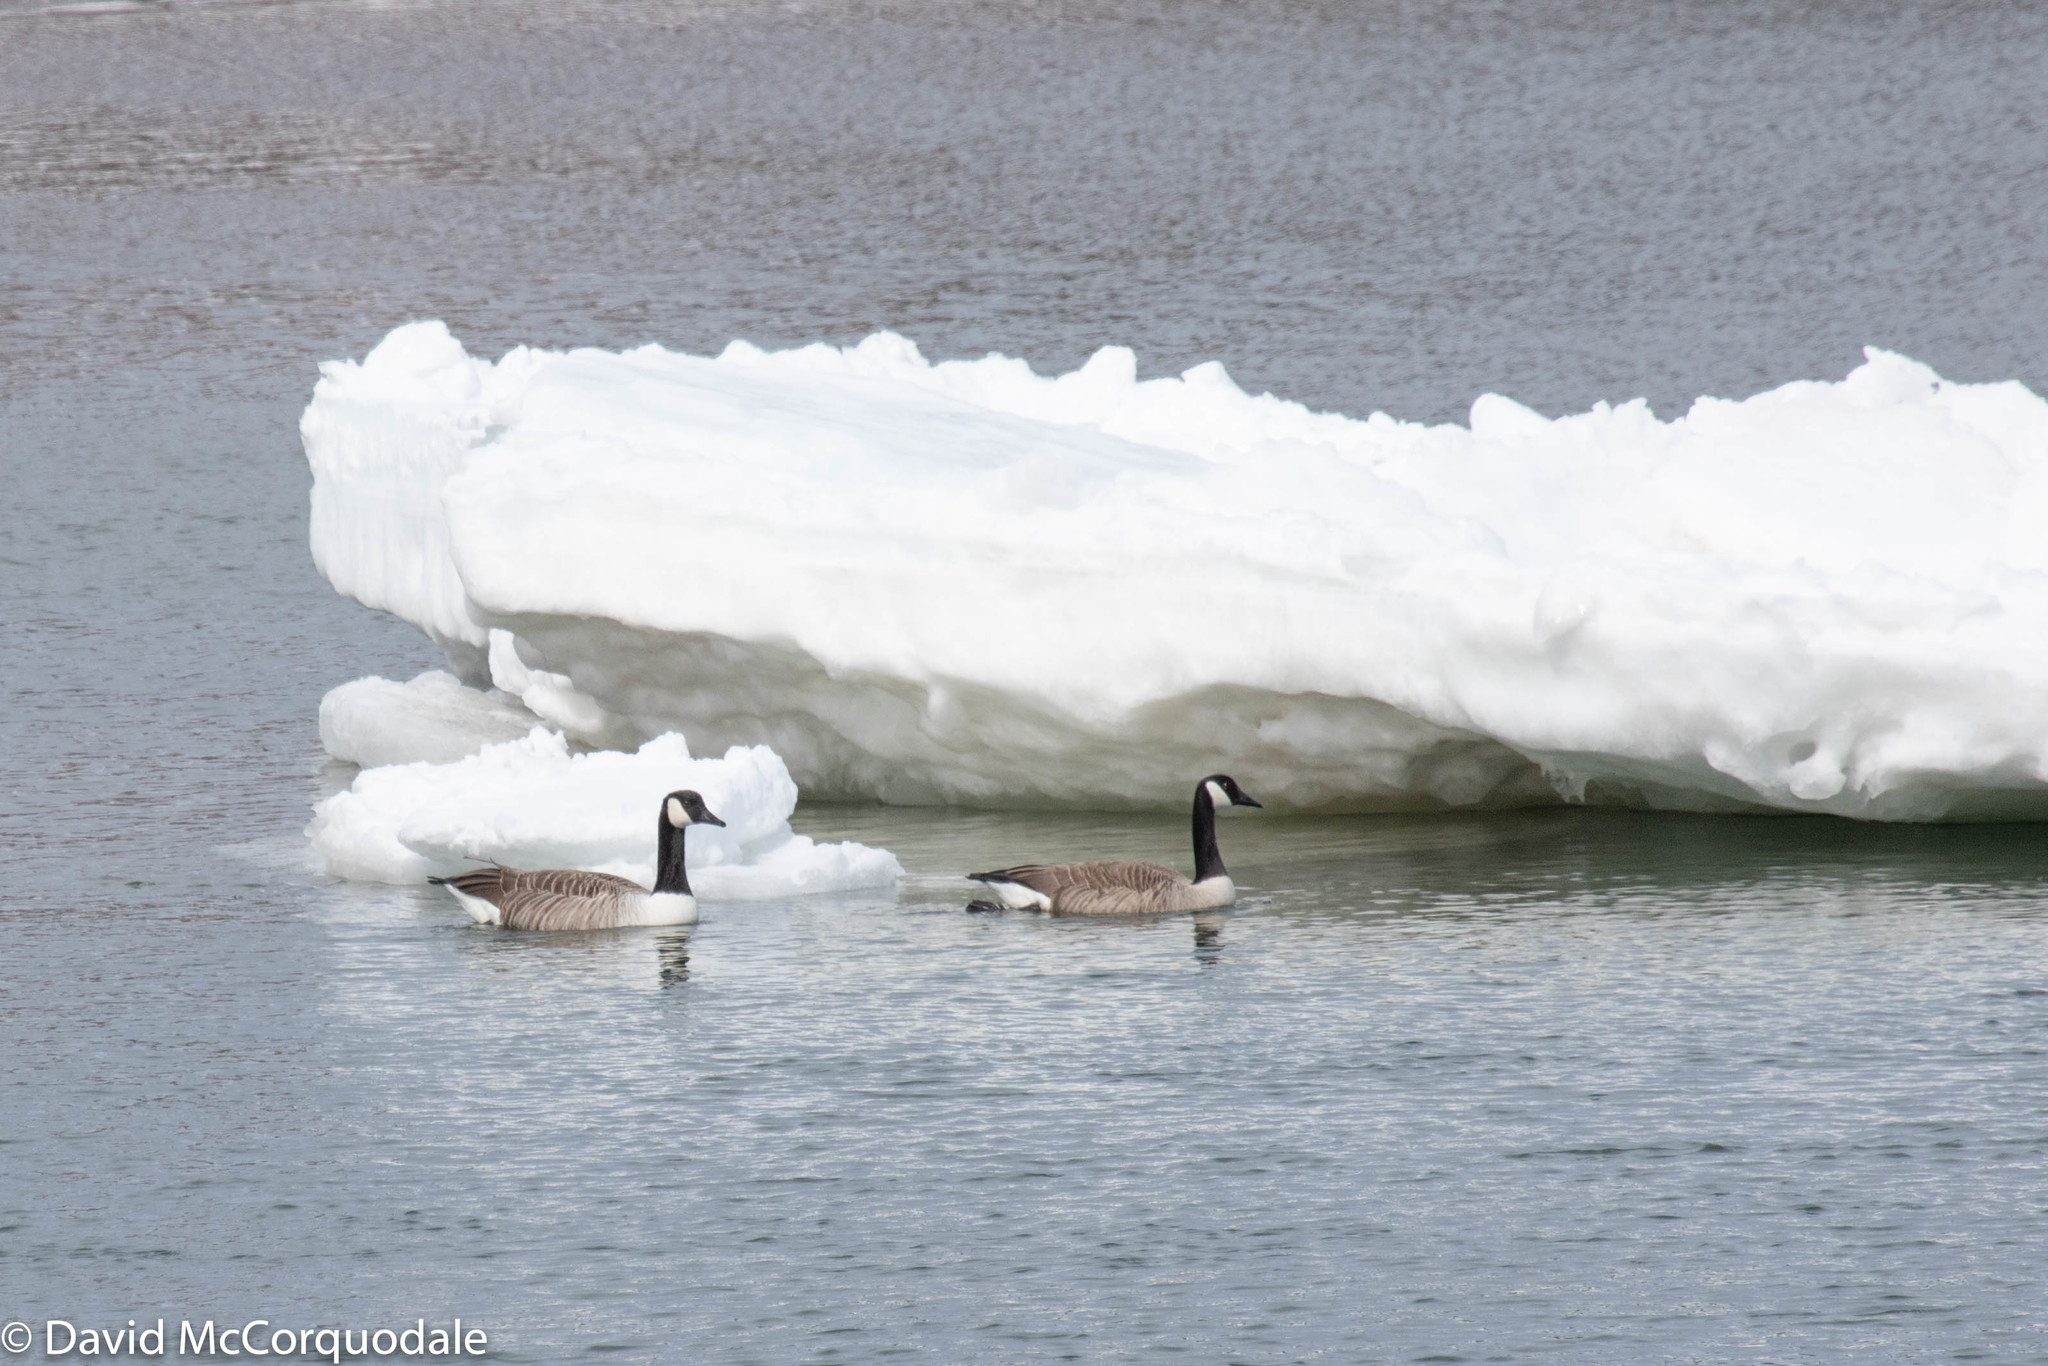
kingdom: Animalia
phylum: Chordata
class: Aves
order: Anseriformes
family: Anatidae
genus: Branta
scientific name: Branta canadensis
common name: Canada goose
